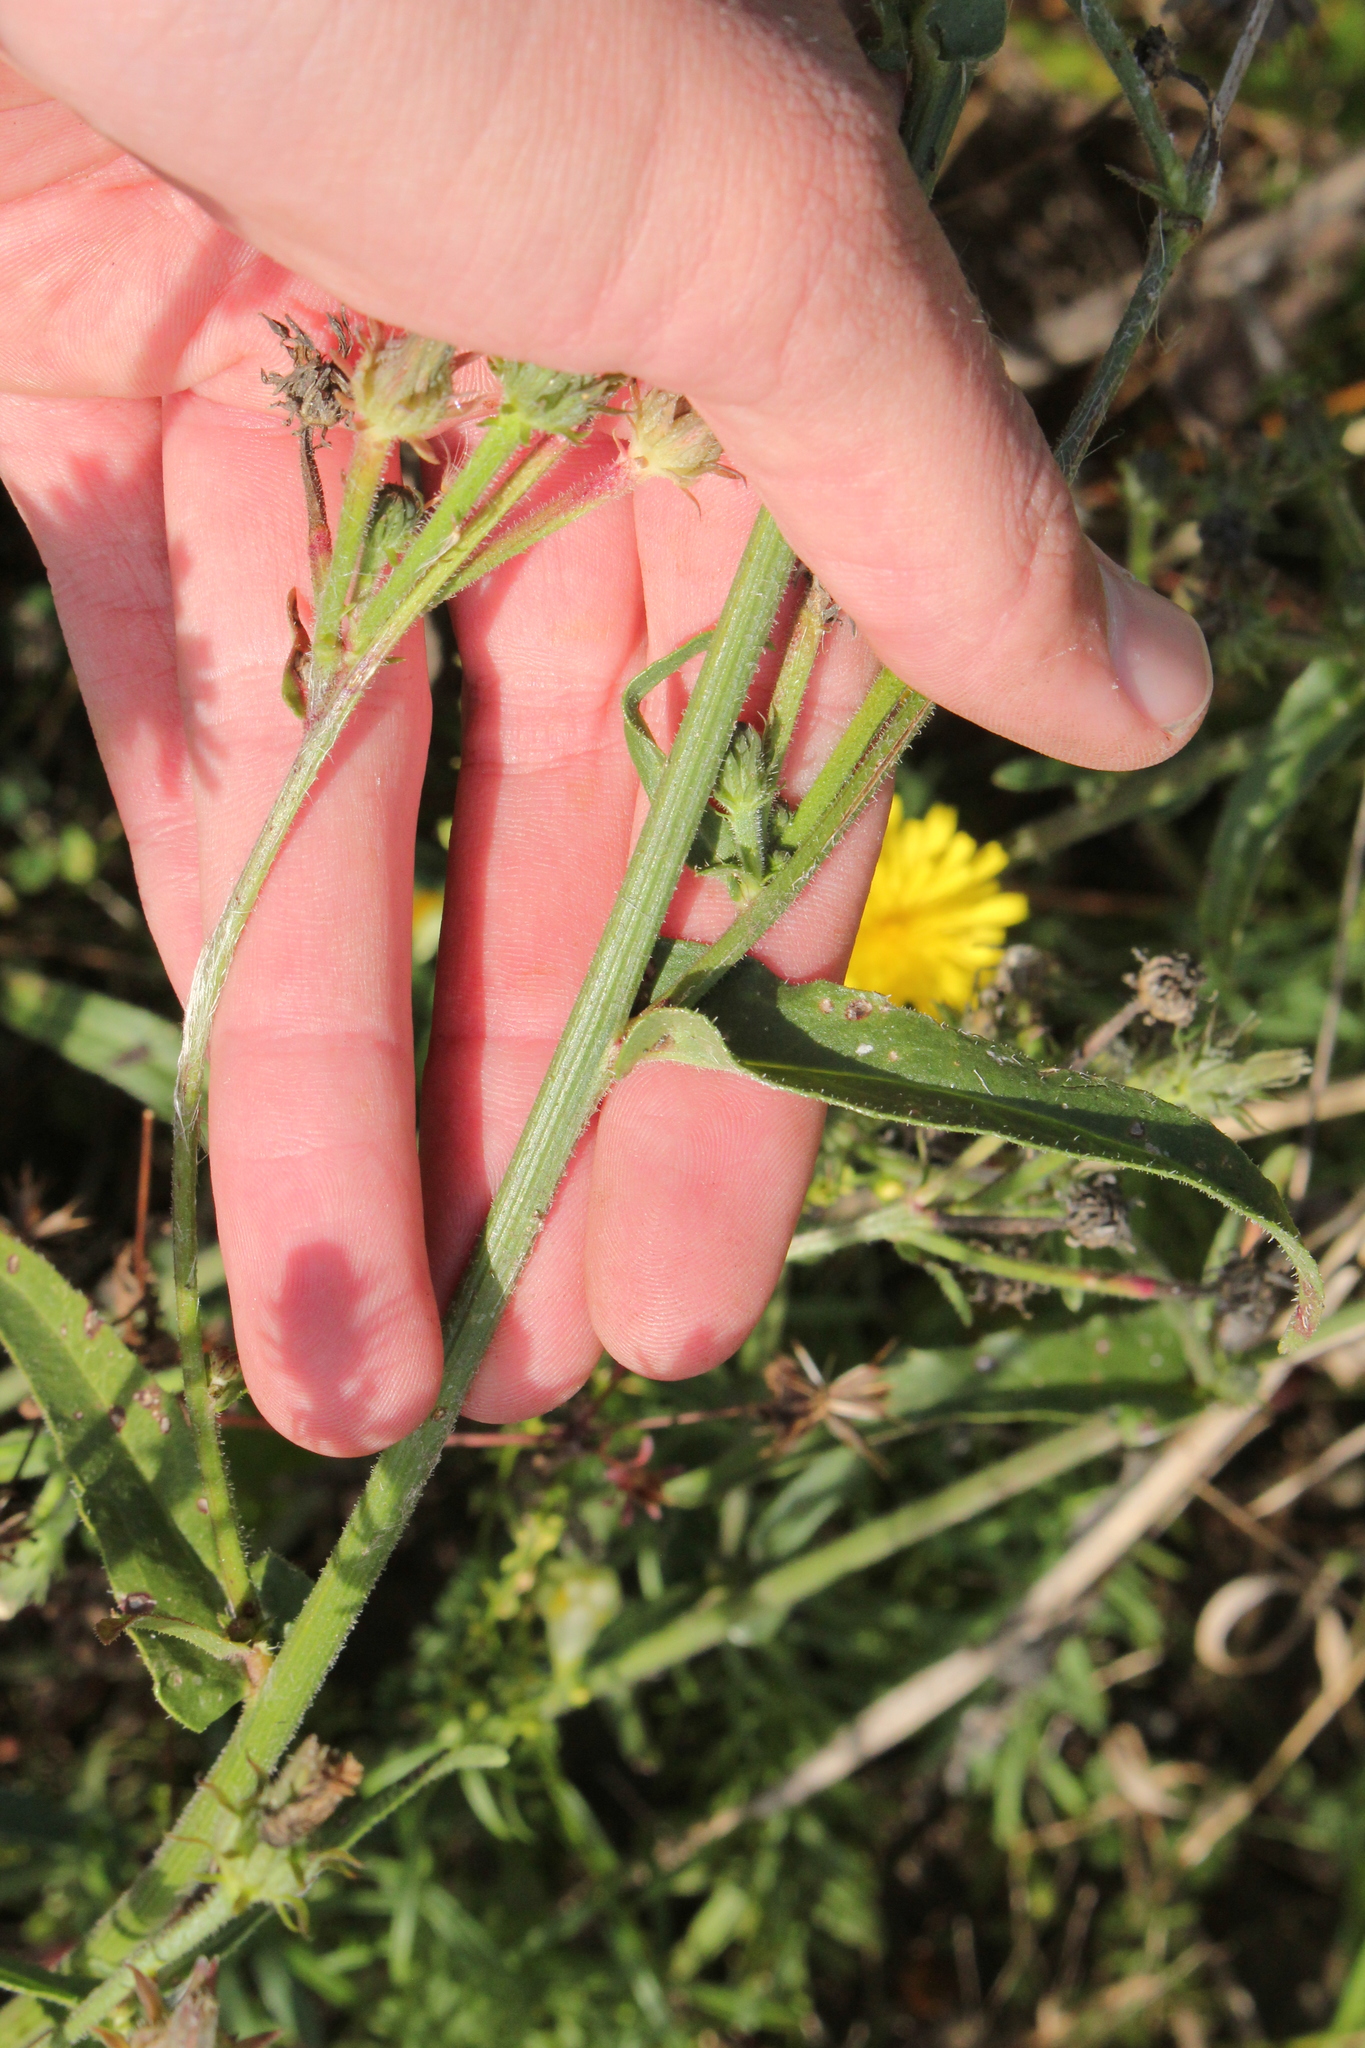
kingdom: Plantae
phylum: Tracheophyta
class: Magnoliopsida
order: Asterales
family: Asteraceae
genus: Picris
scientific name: Picris hieracioides
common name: Hawkweed oxtongue
